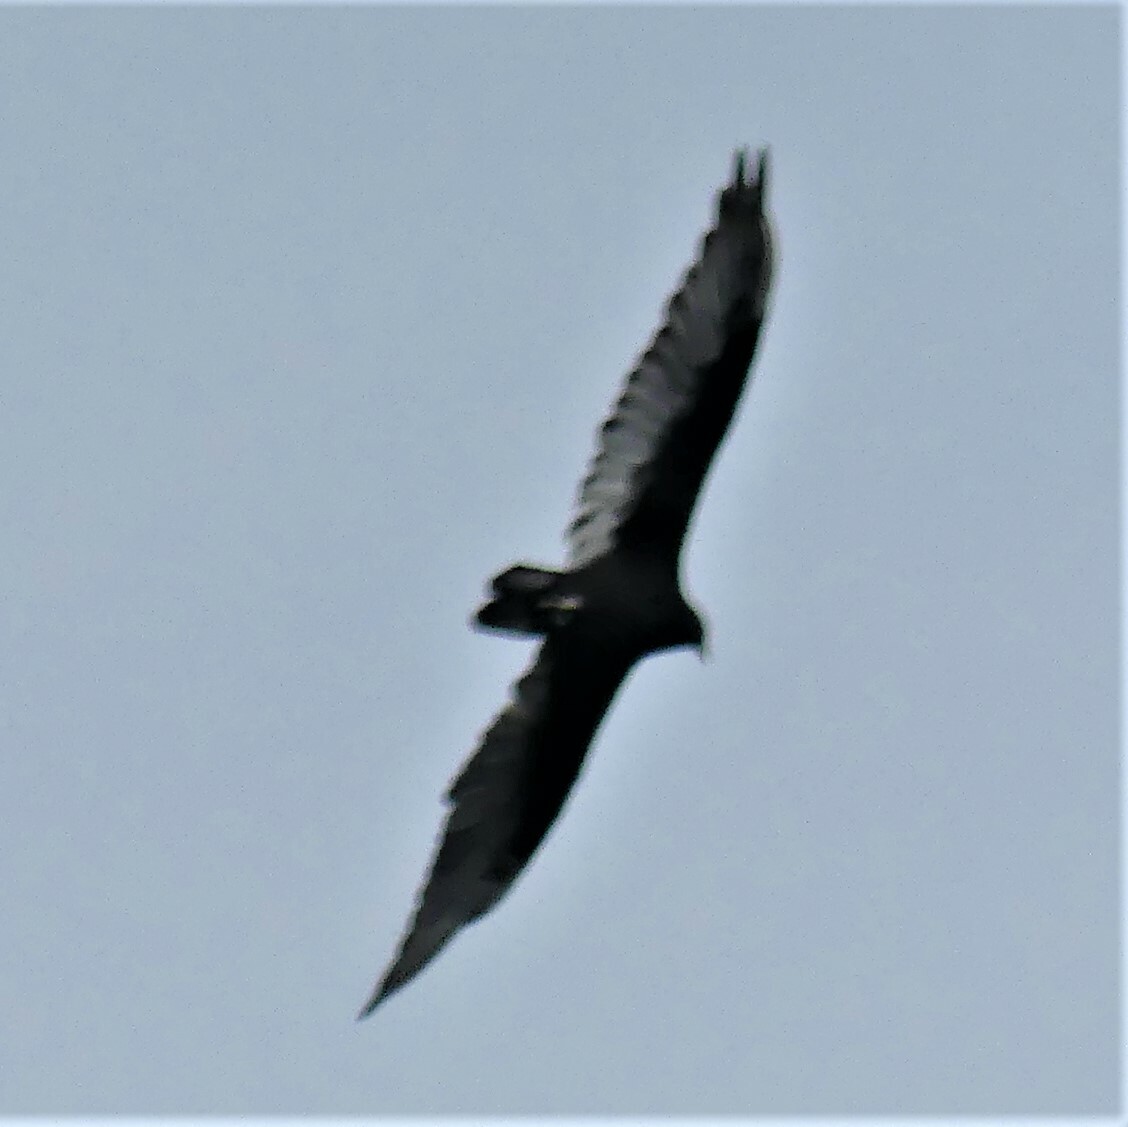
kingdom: Animalia
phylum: Chordata
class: Aves
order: Accipitriformes
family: Cathartidae
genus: Cathartes
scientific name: Cathartes aura
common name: Turkey vulture
